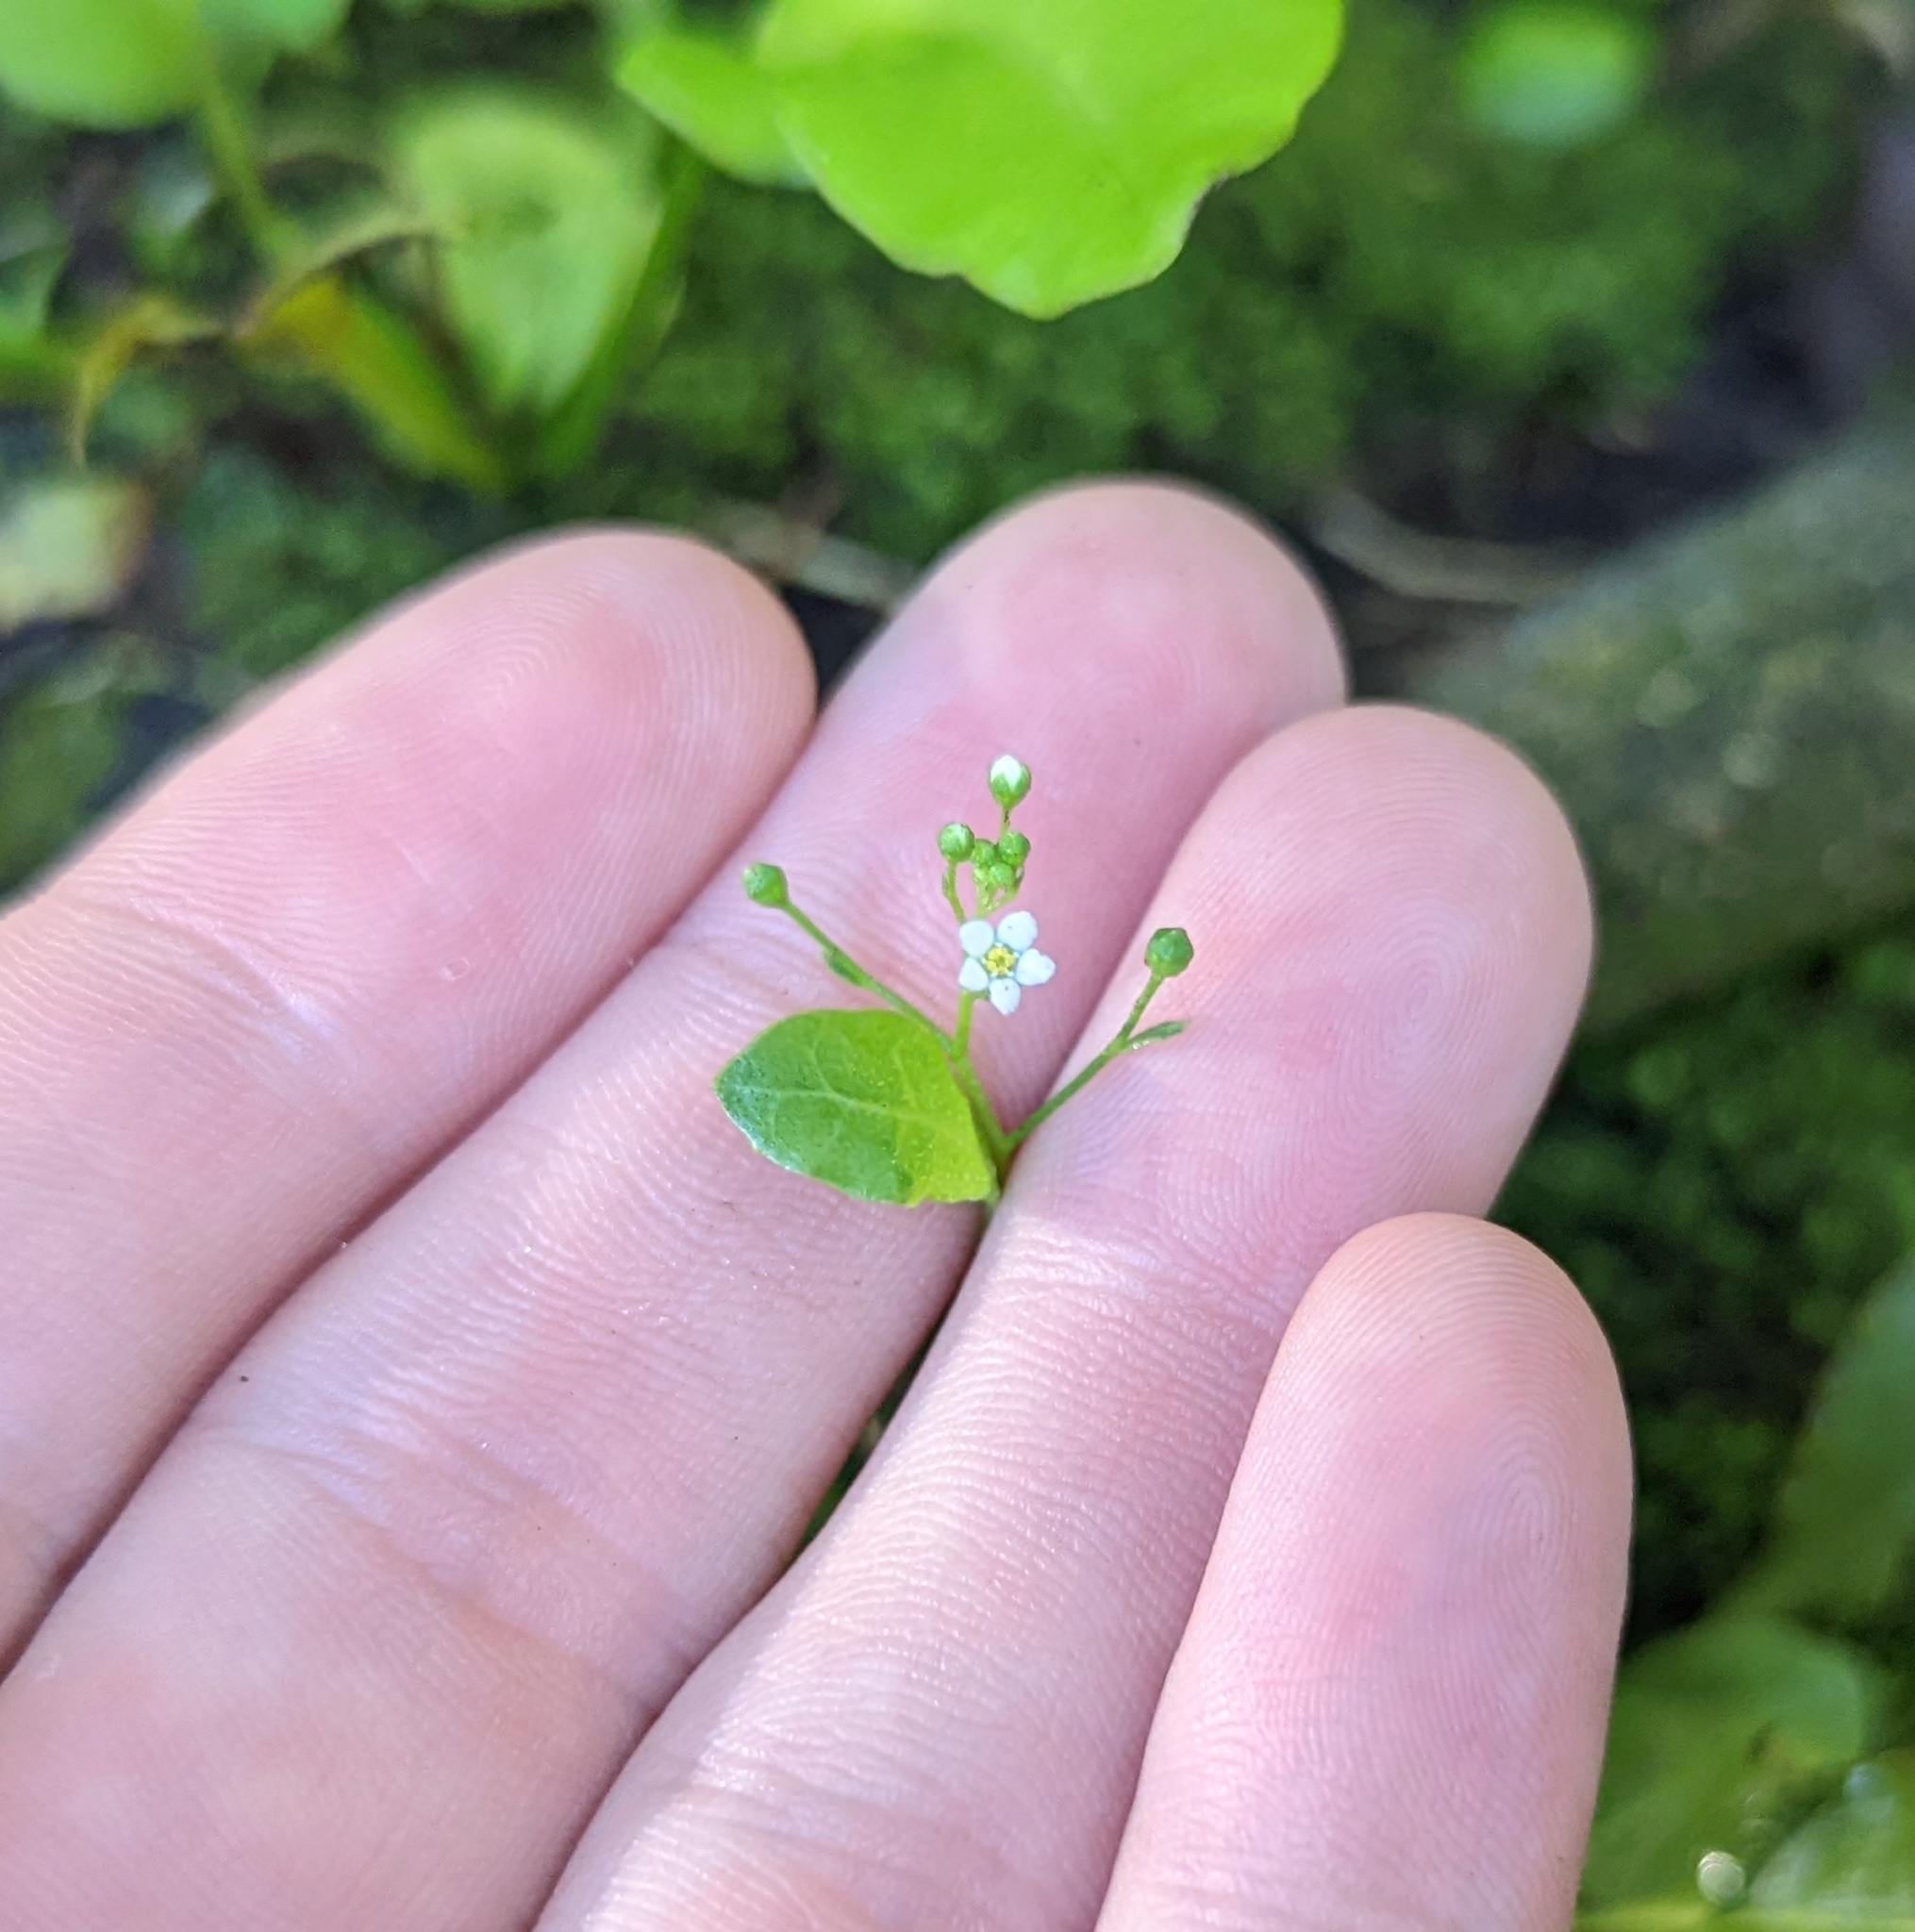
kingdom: Plantae
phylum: Tracheophyta
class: Magnoliopsida
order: Ericales
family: Primulaceae
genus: Samolus
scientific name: Samolus parviflorus
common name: False water pimpernel
